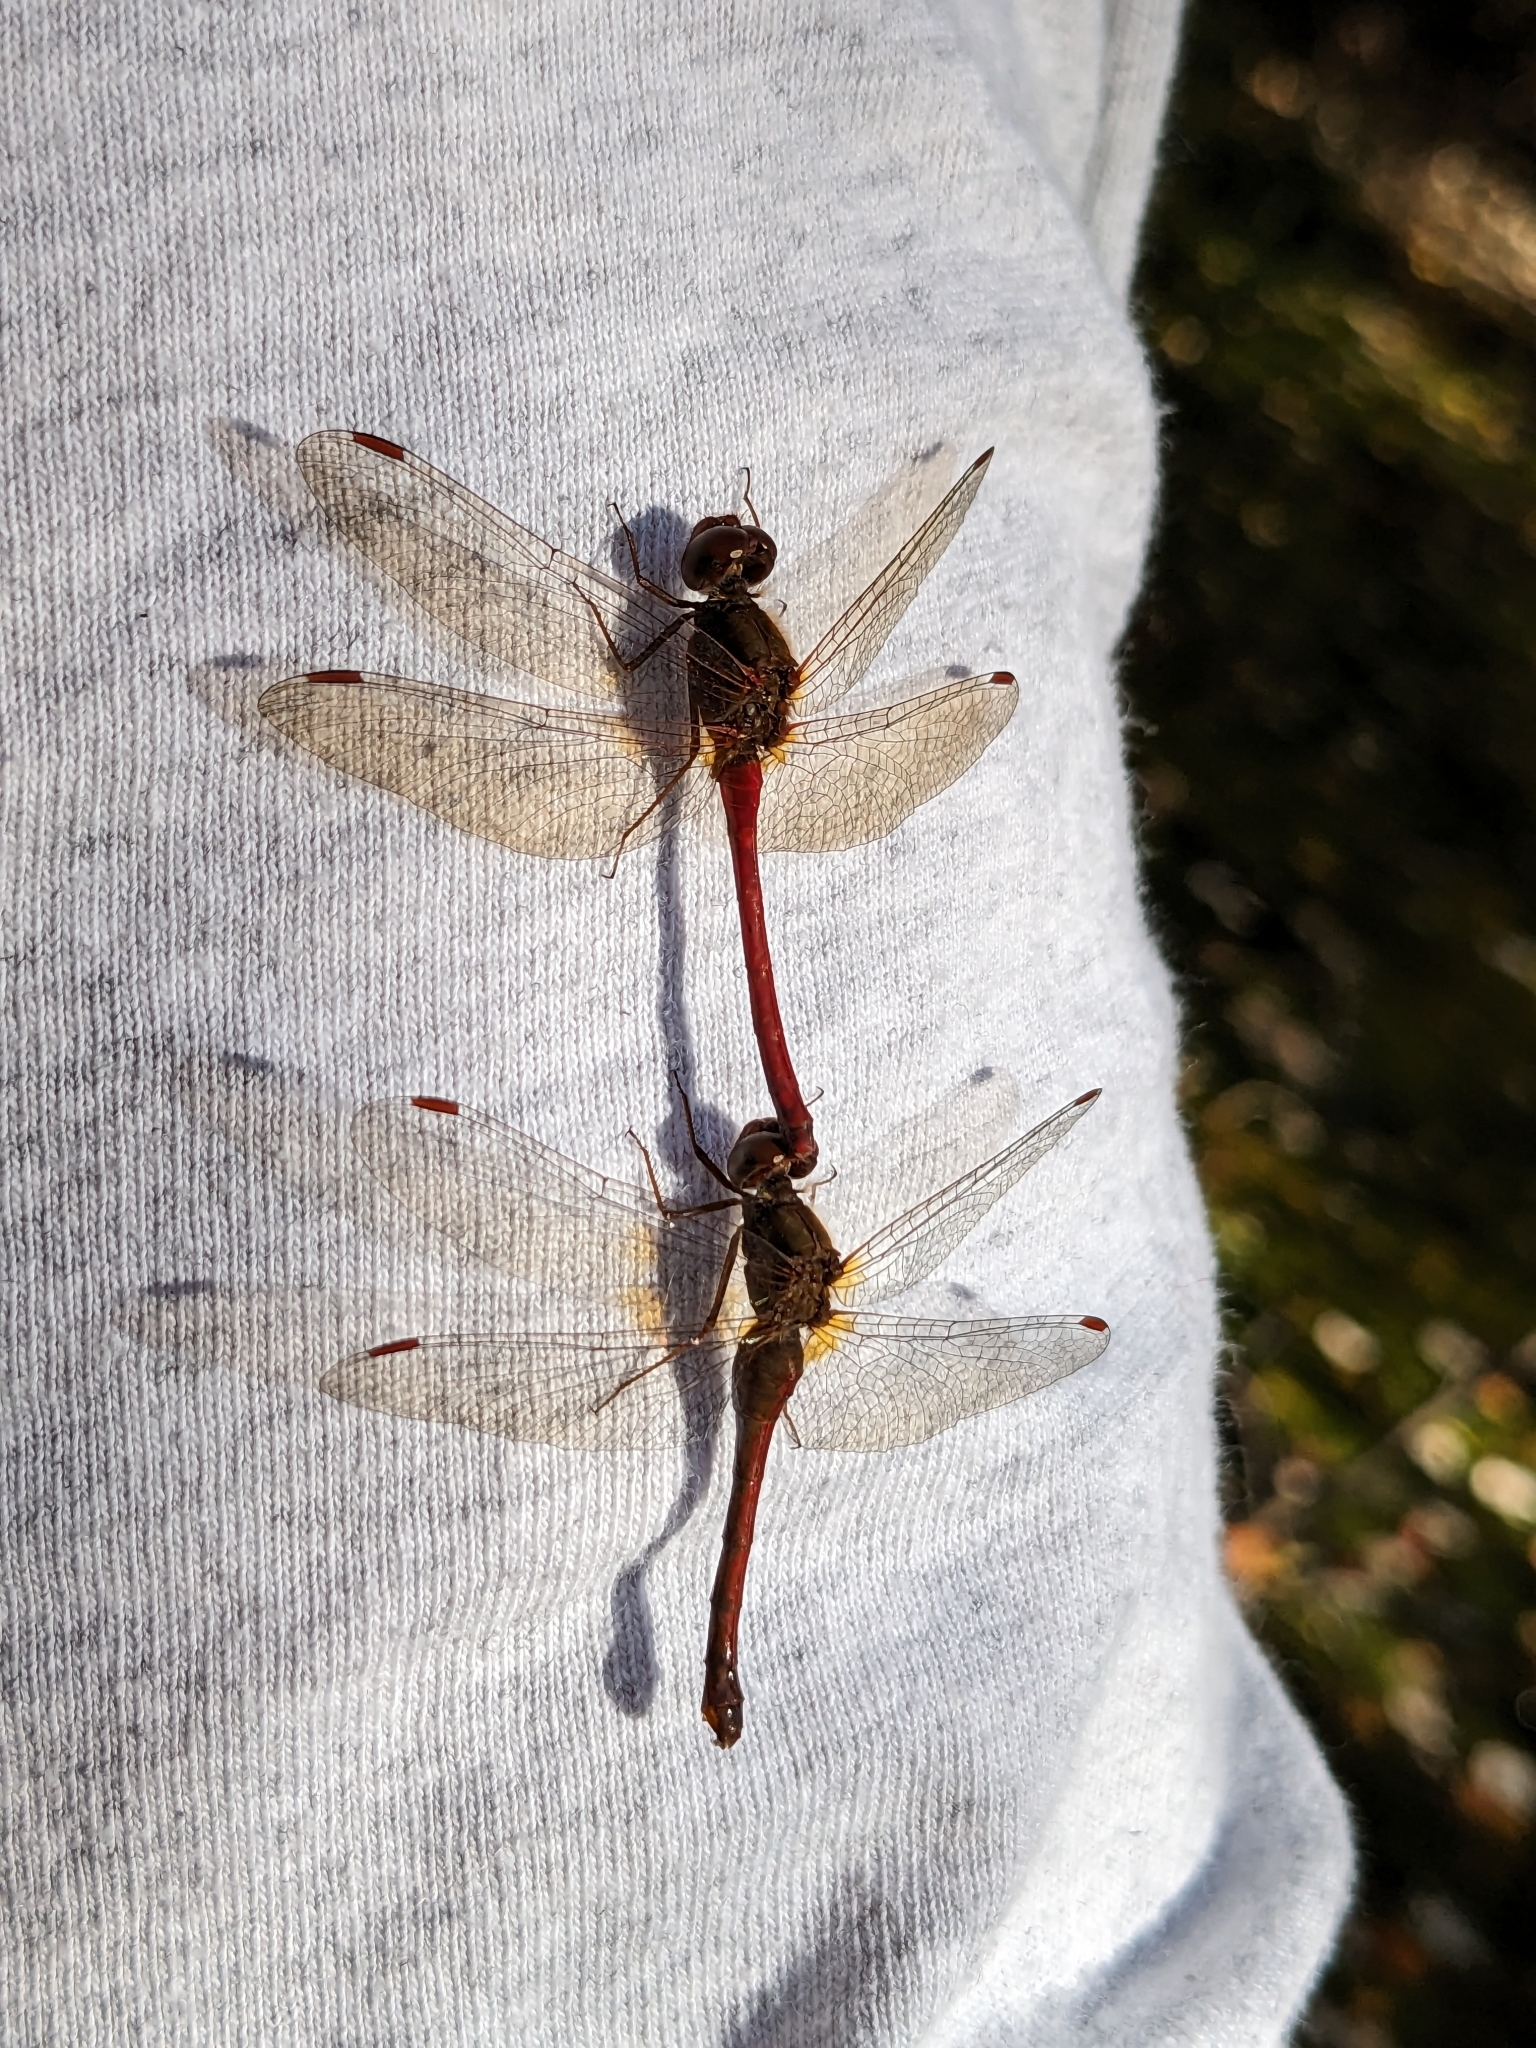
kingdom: Animalia
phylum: Arthropoda
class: Insecta
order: Odonata
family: Libellulidae
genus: Sympetrum
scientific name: Sympetrum vicinum
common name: Autumn meadowhawk
